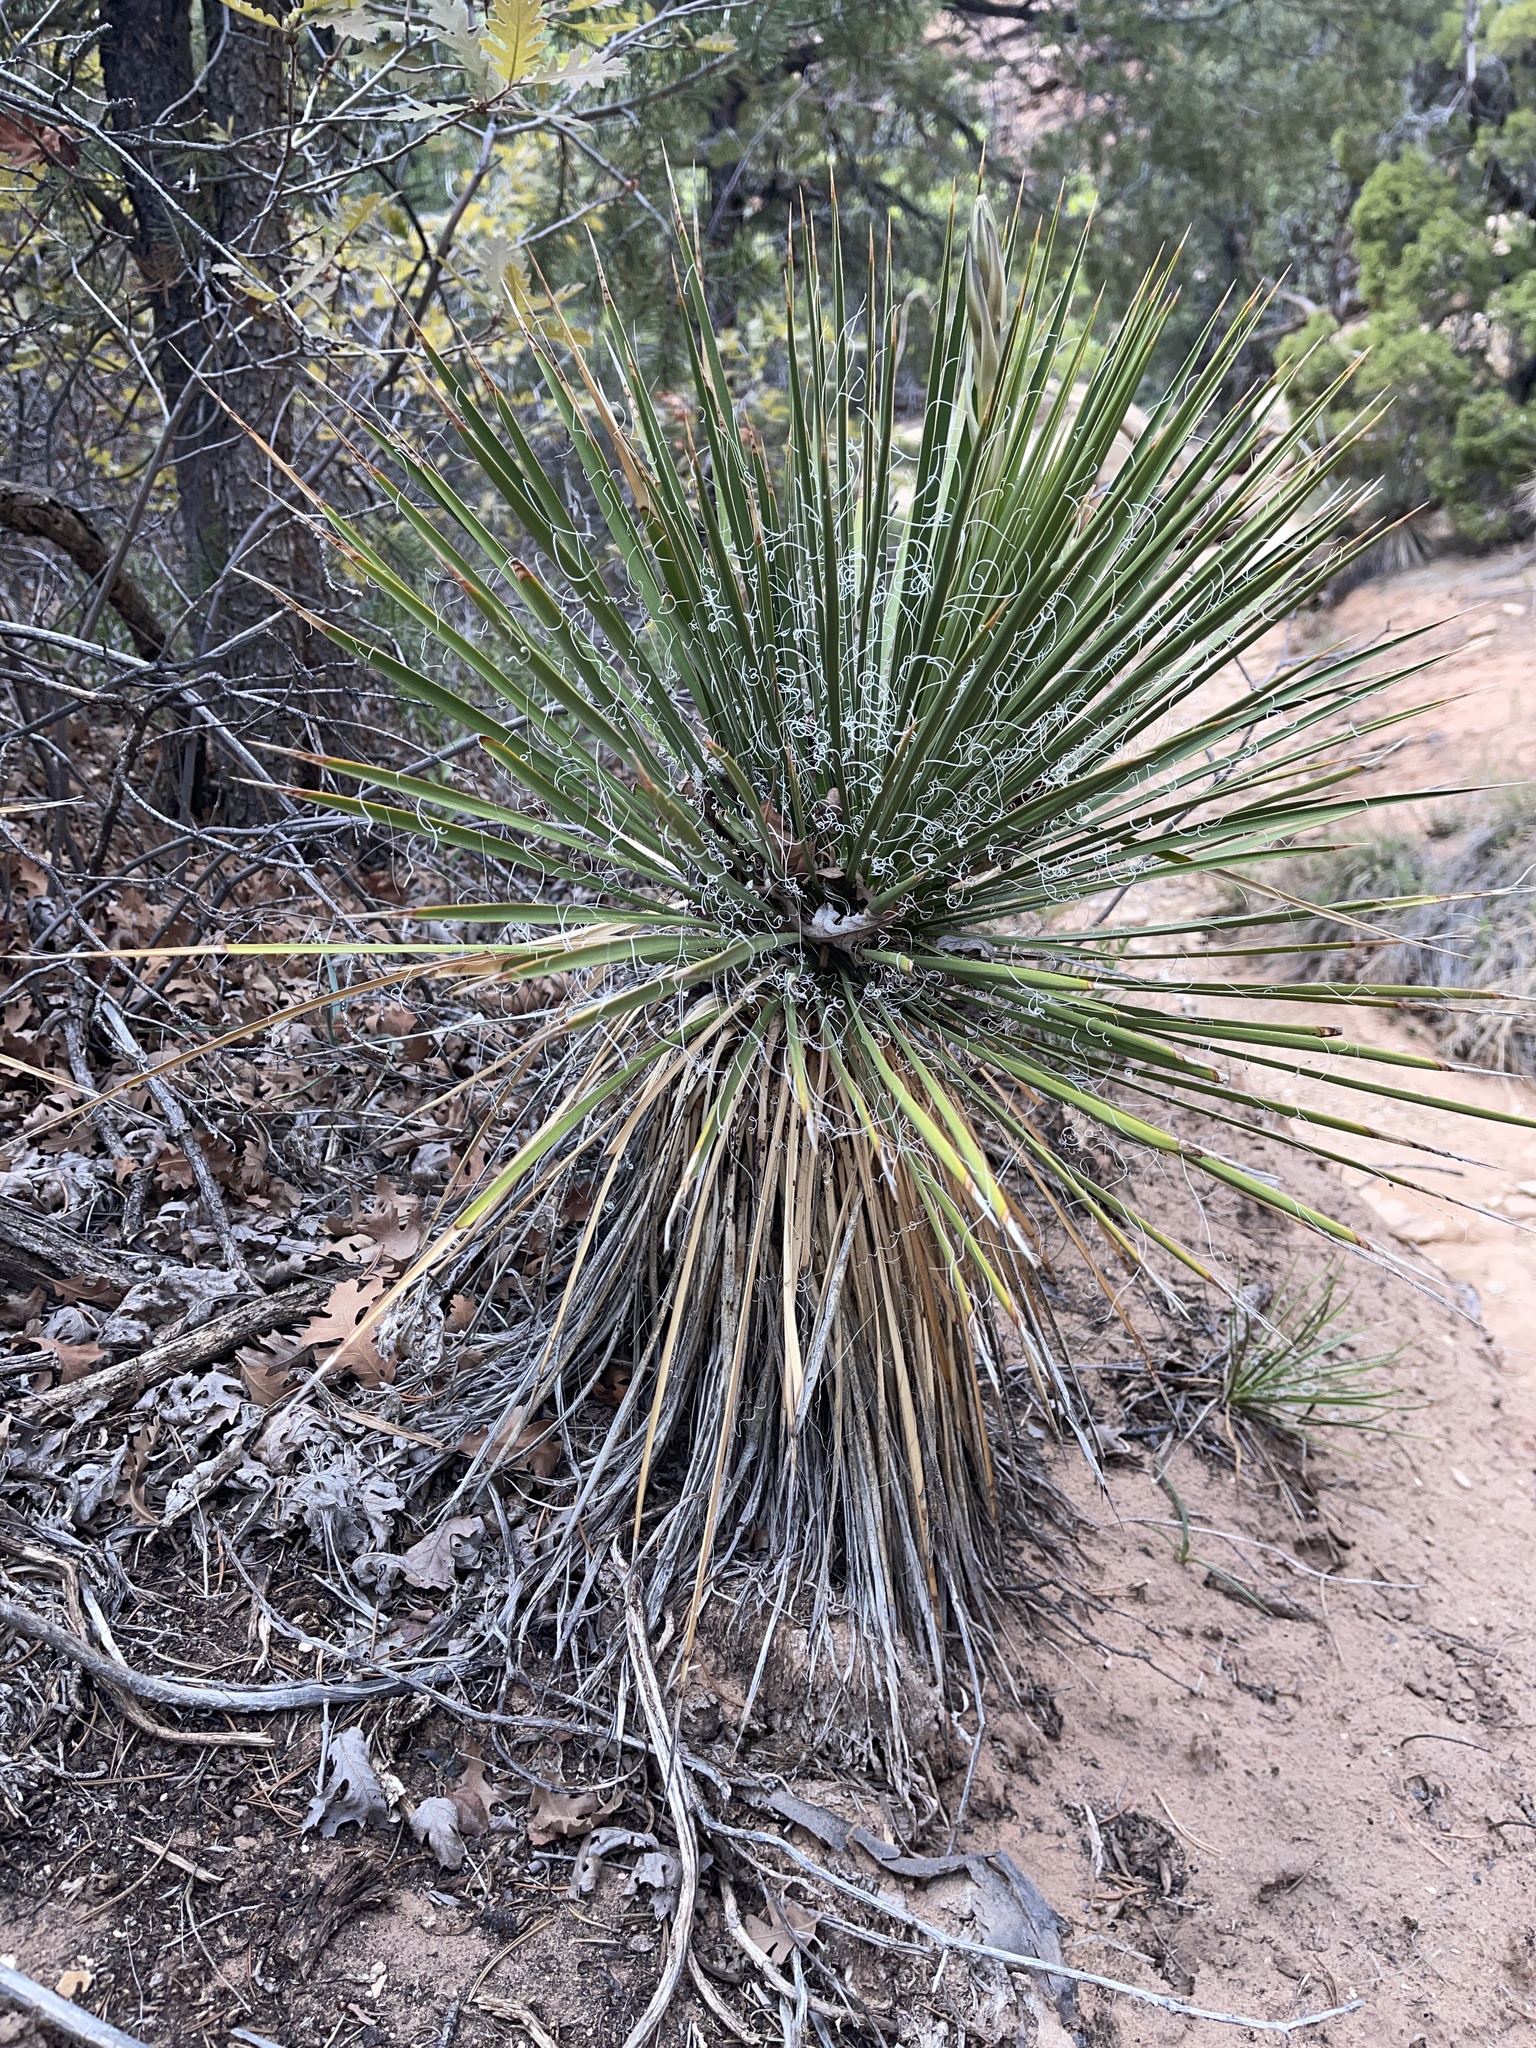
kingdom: Plantae
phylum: Tracheophyta
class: Liliopsida
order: Asparagales
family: Asparagaceae
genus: Yucca
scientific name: Yucca angustissima
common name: Narrowleaf yucca
